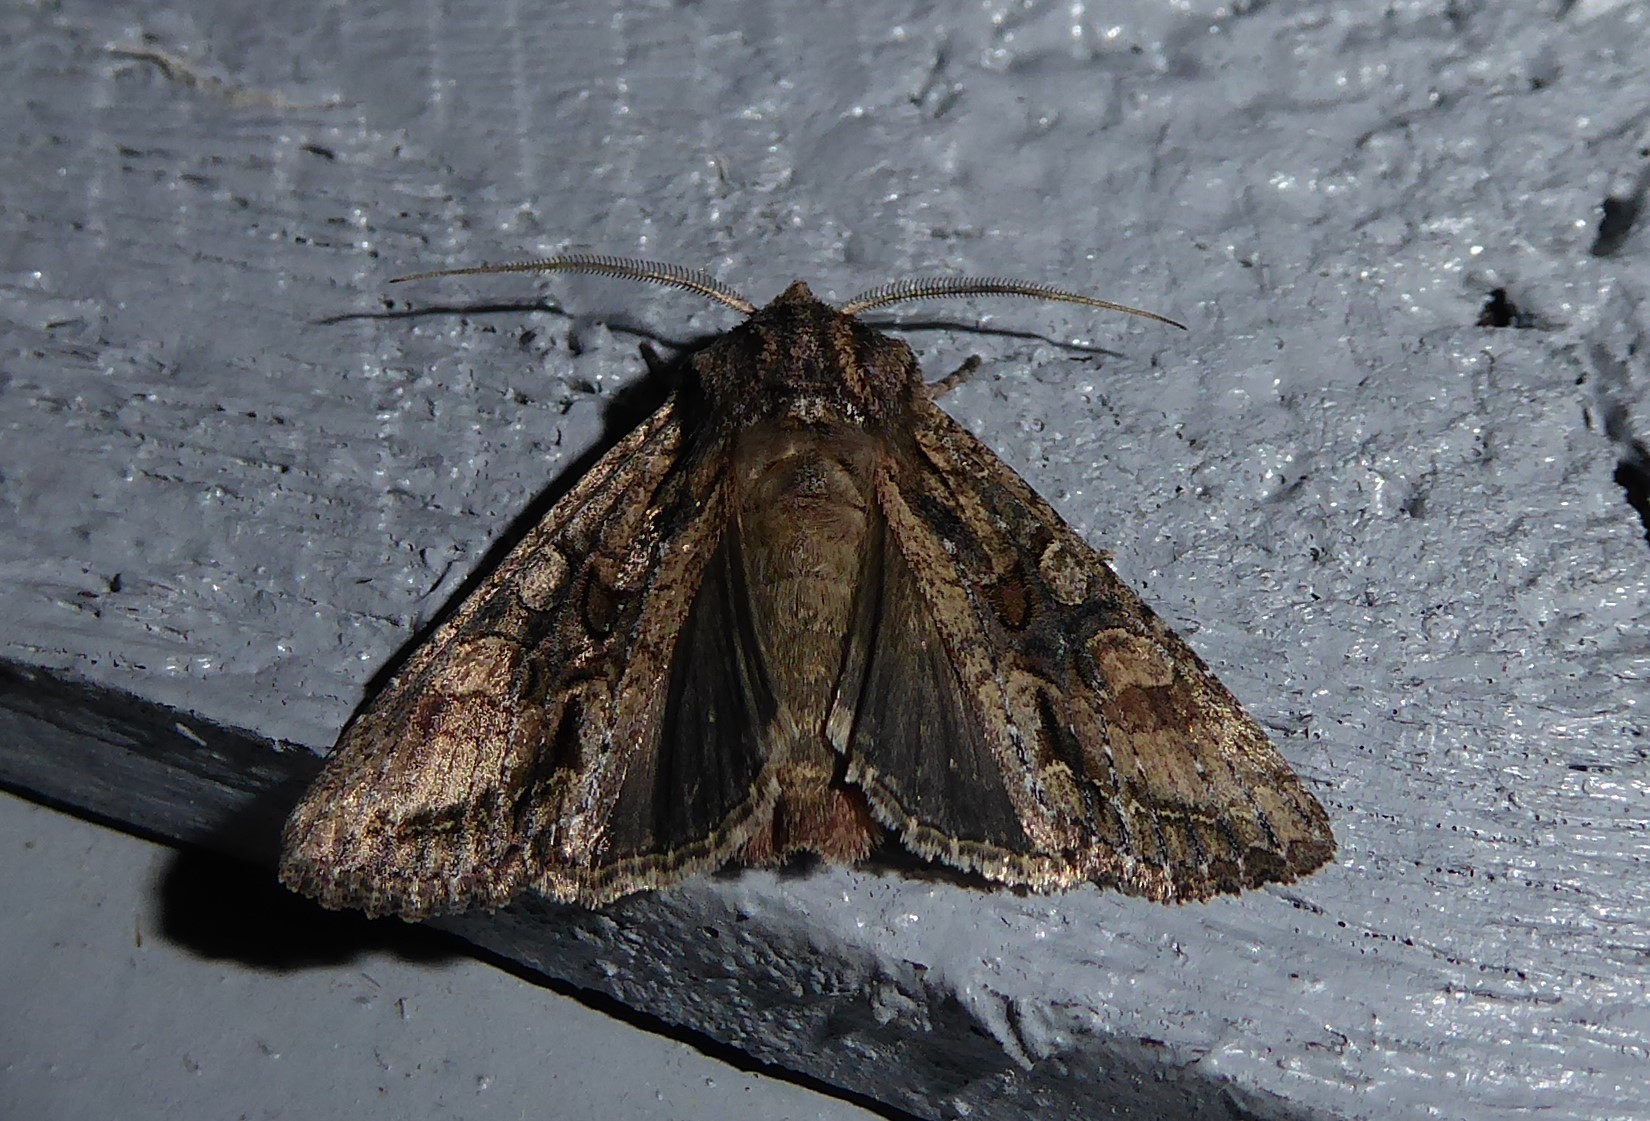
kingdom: Animalia
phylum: Arthropoda
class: Insecta
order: Lepidoptera
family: Noctuidae
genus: Ichneutica
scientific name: Ichneutica mutans
